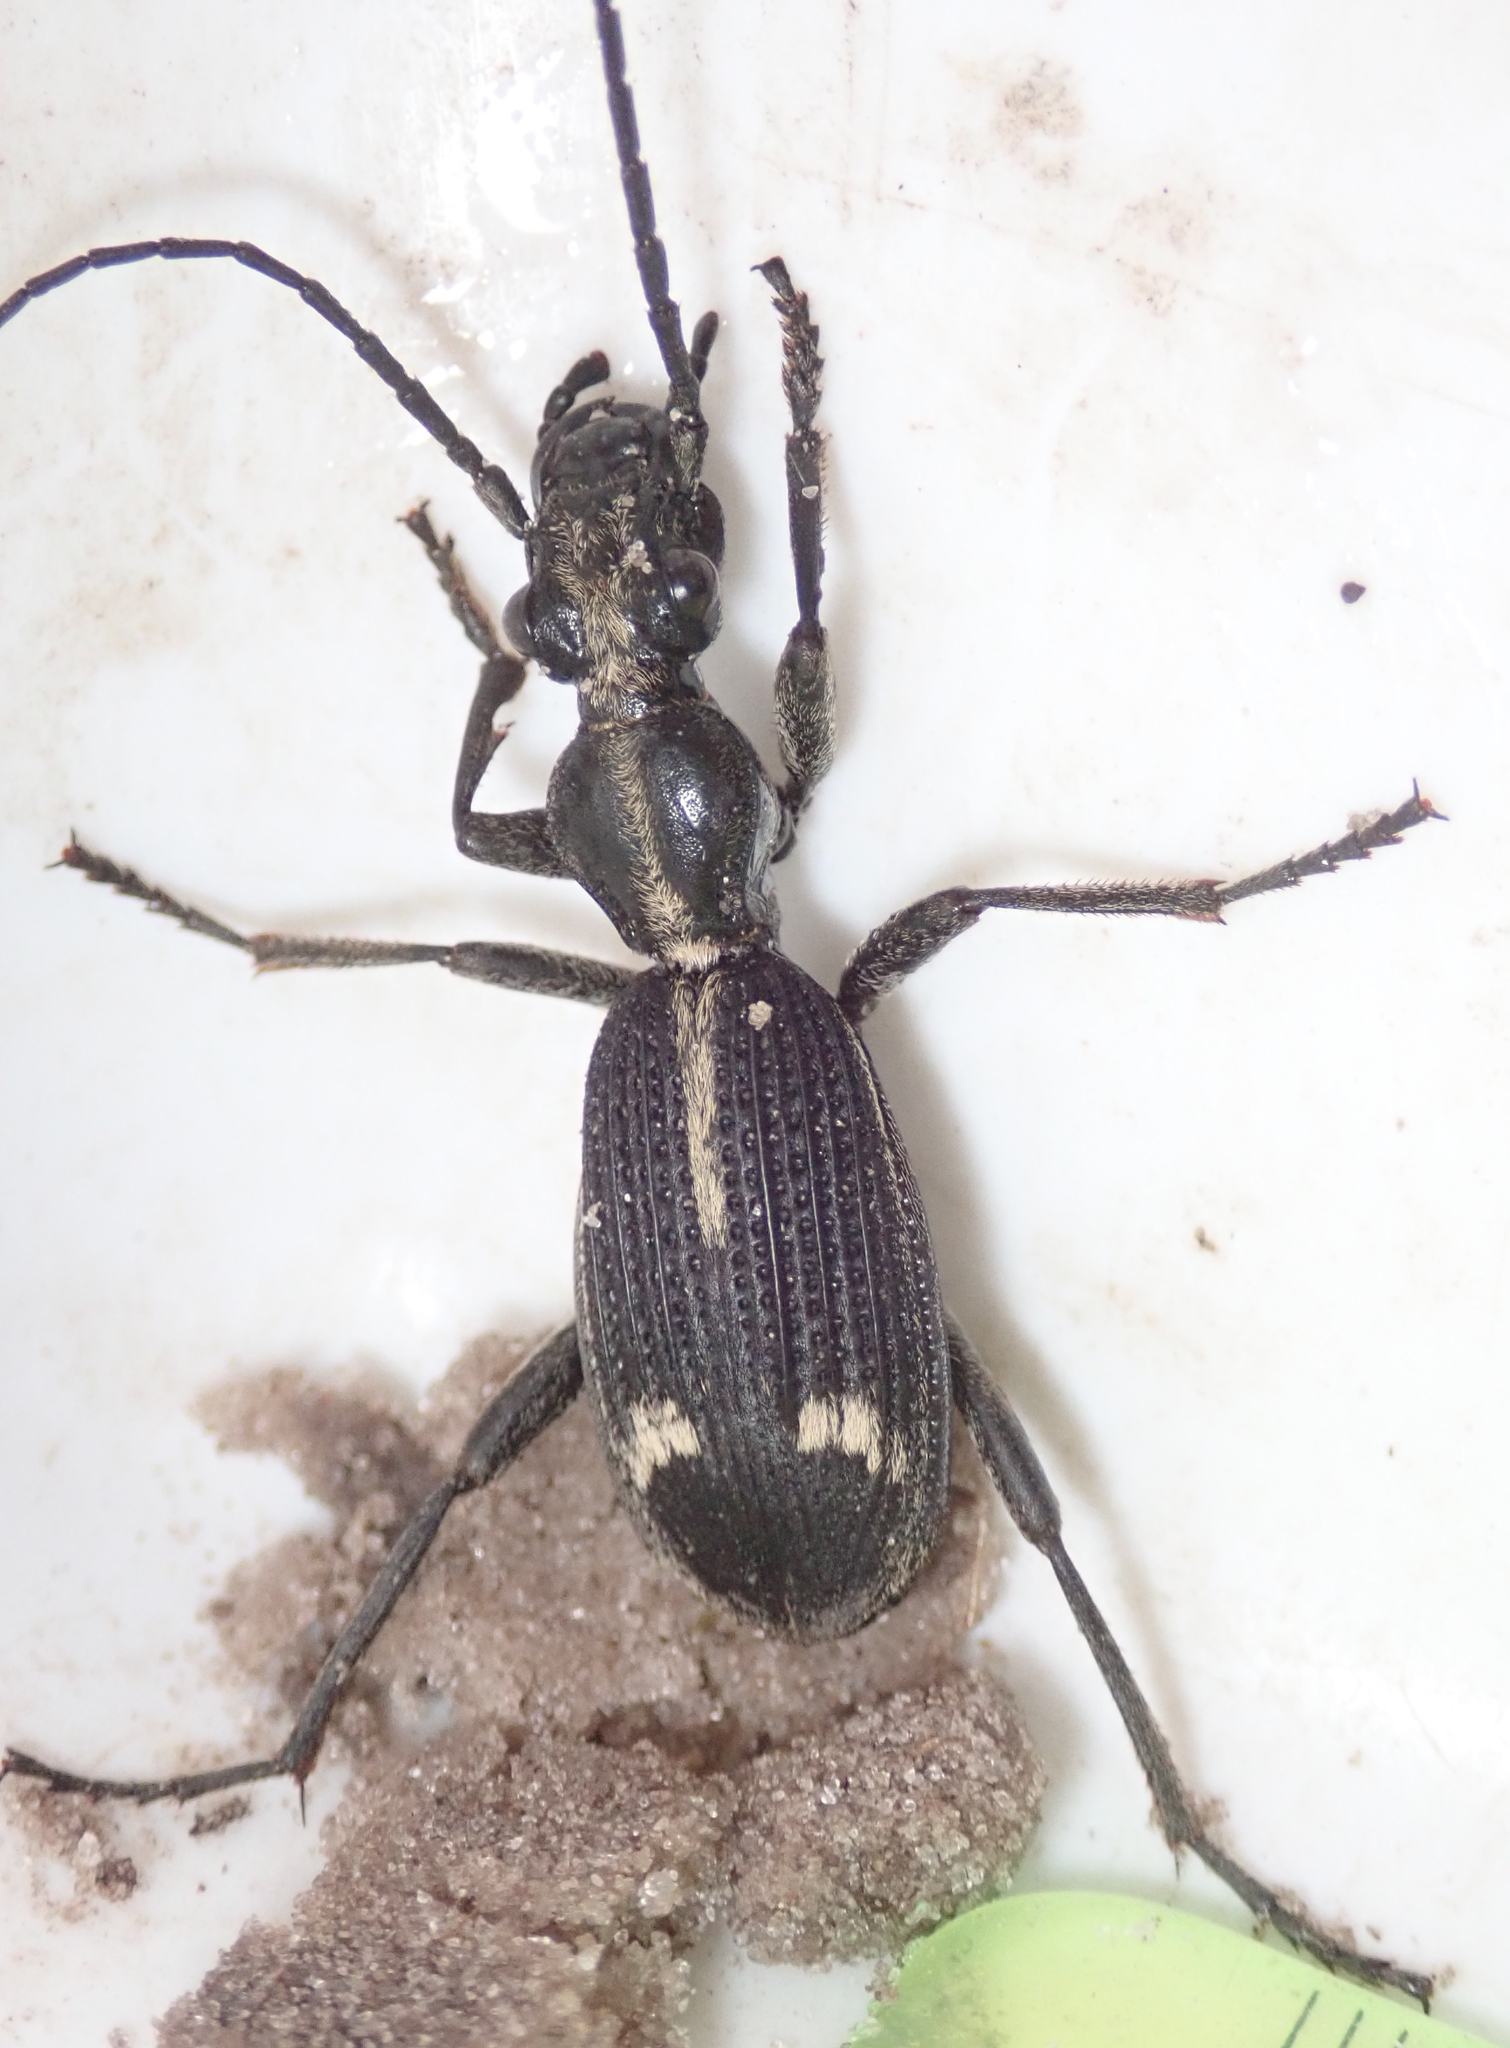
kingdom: Animalia
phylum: Arthropoda
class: Insecta
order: Coleoptera
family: Carabidae
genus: Cypholoba
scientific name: Cypholoba graphipteroides
